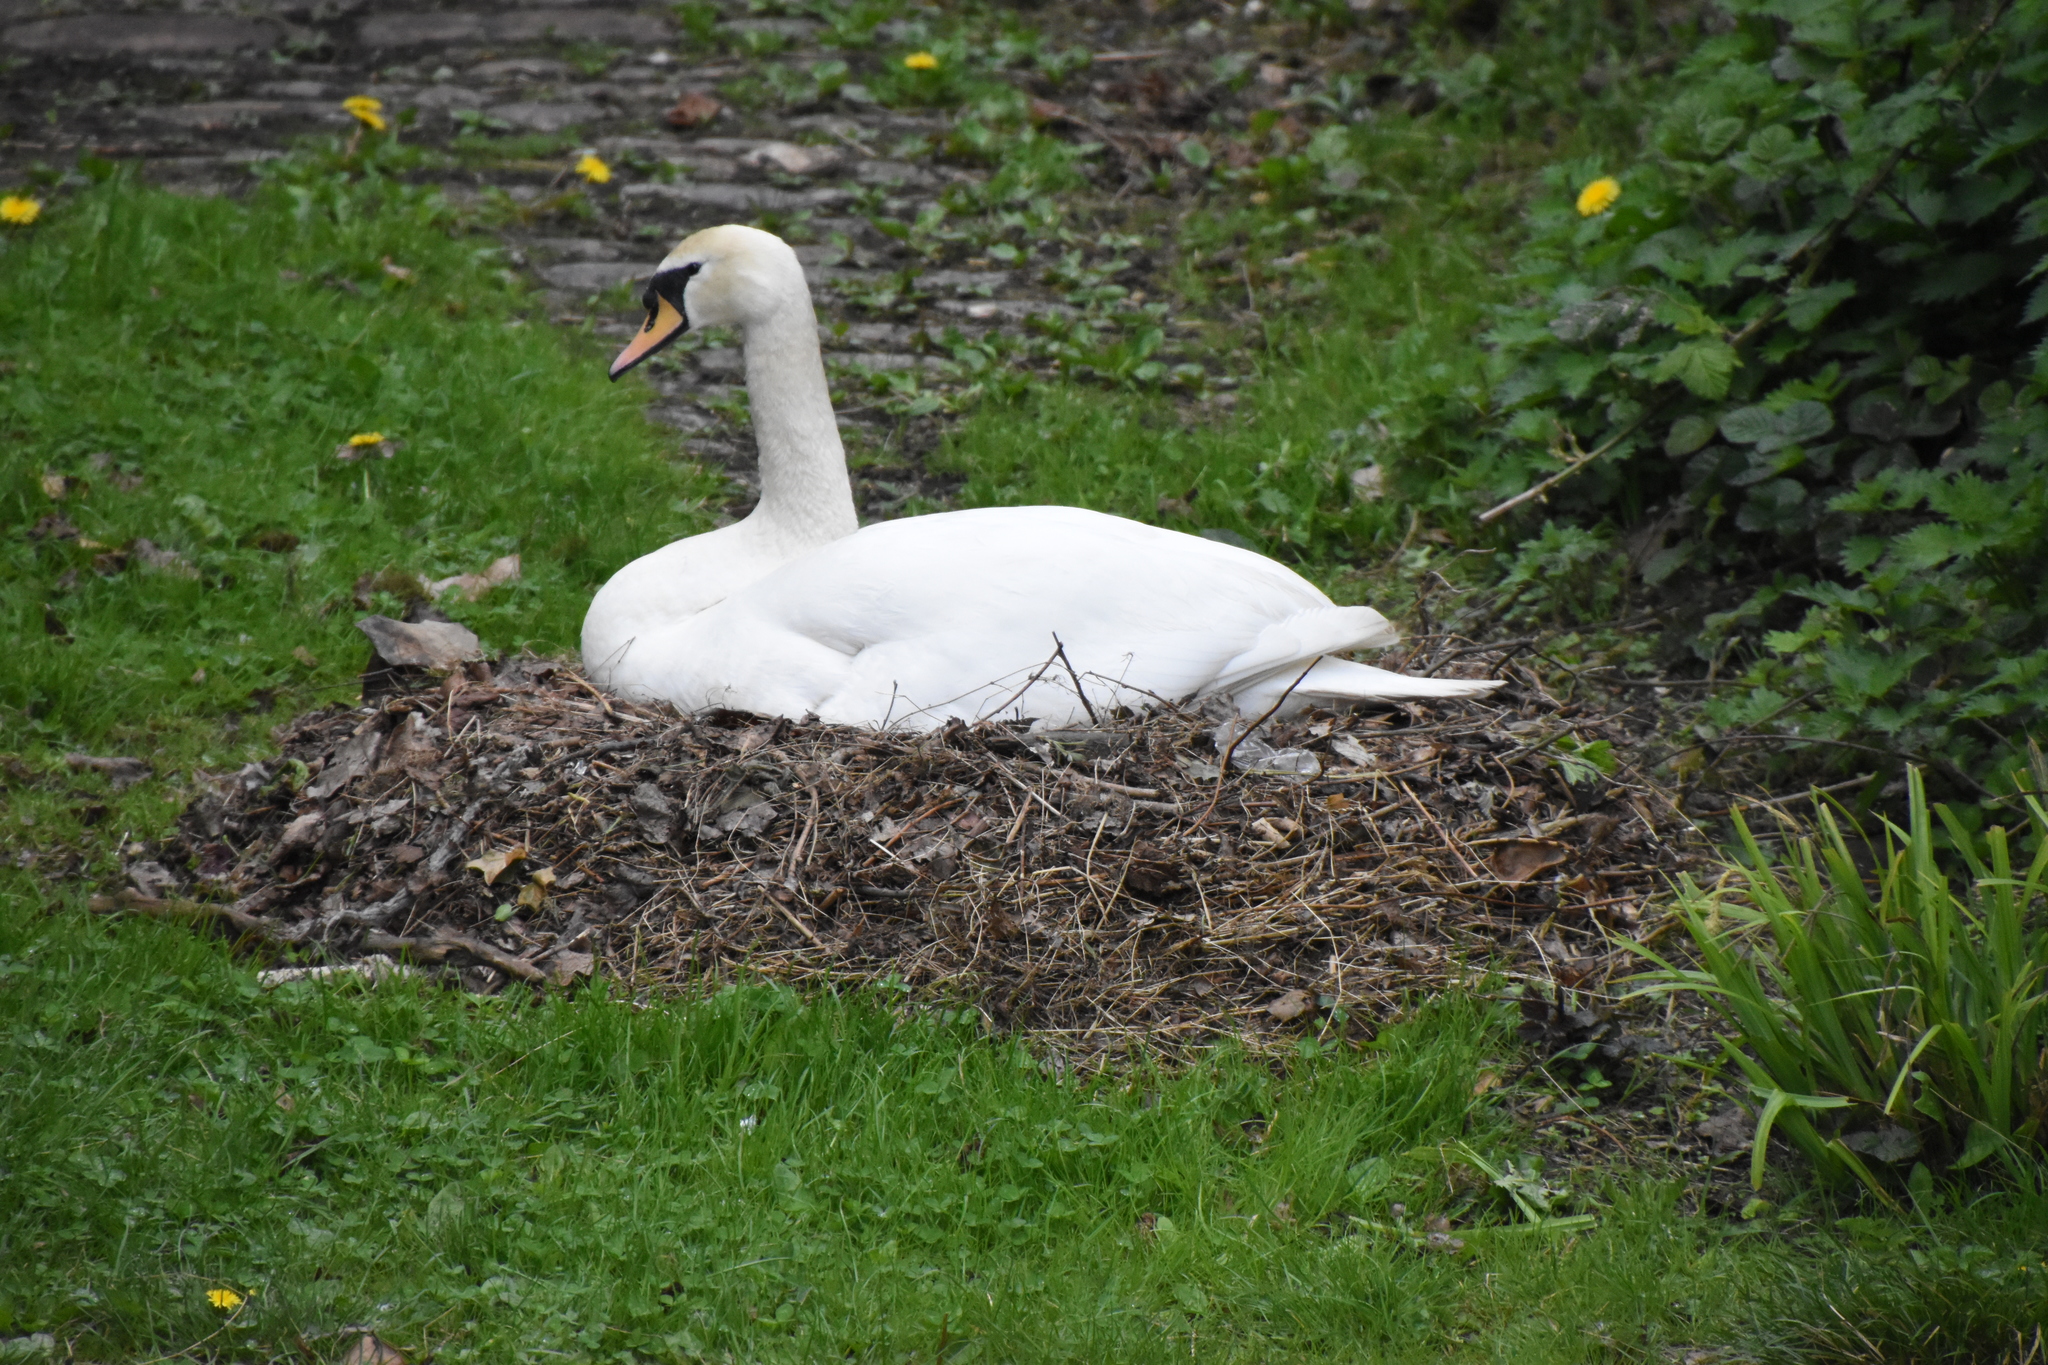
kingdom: Animalia
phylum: Chordata
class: Aves
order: Anseriformes
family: Anatidae
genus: Cygnus
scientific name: Cygnus olor
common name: Mute swan
